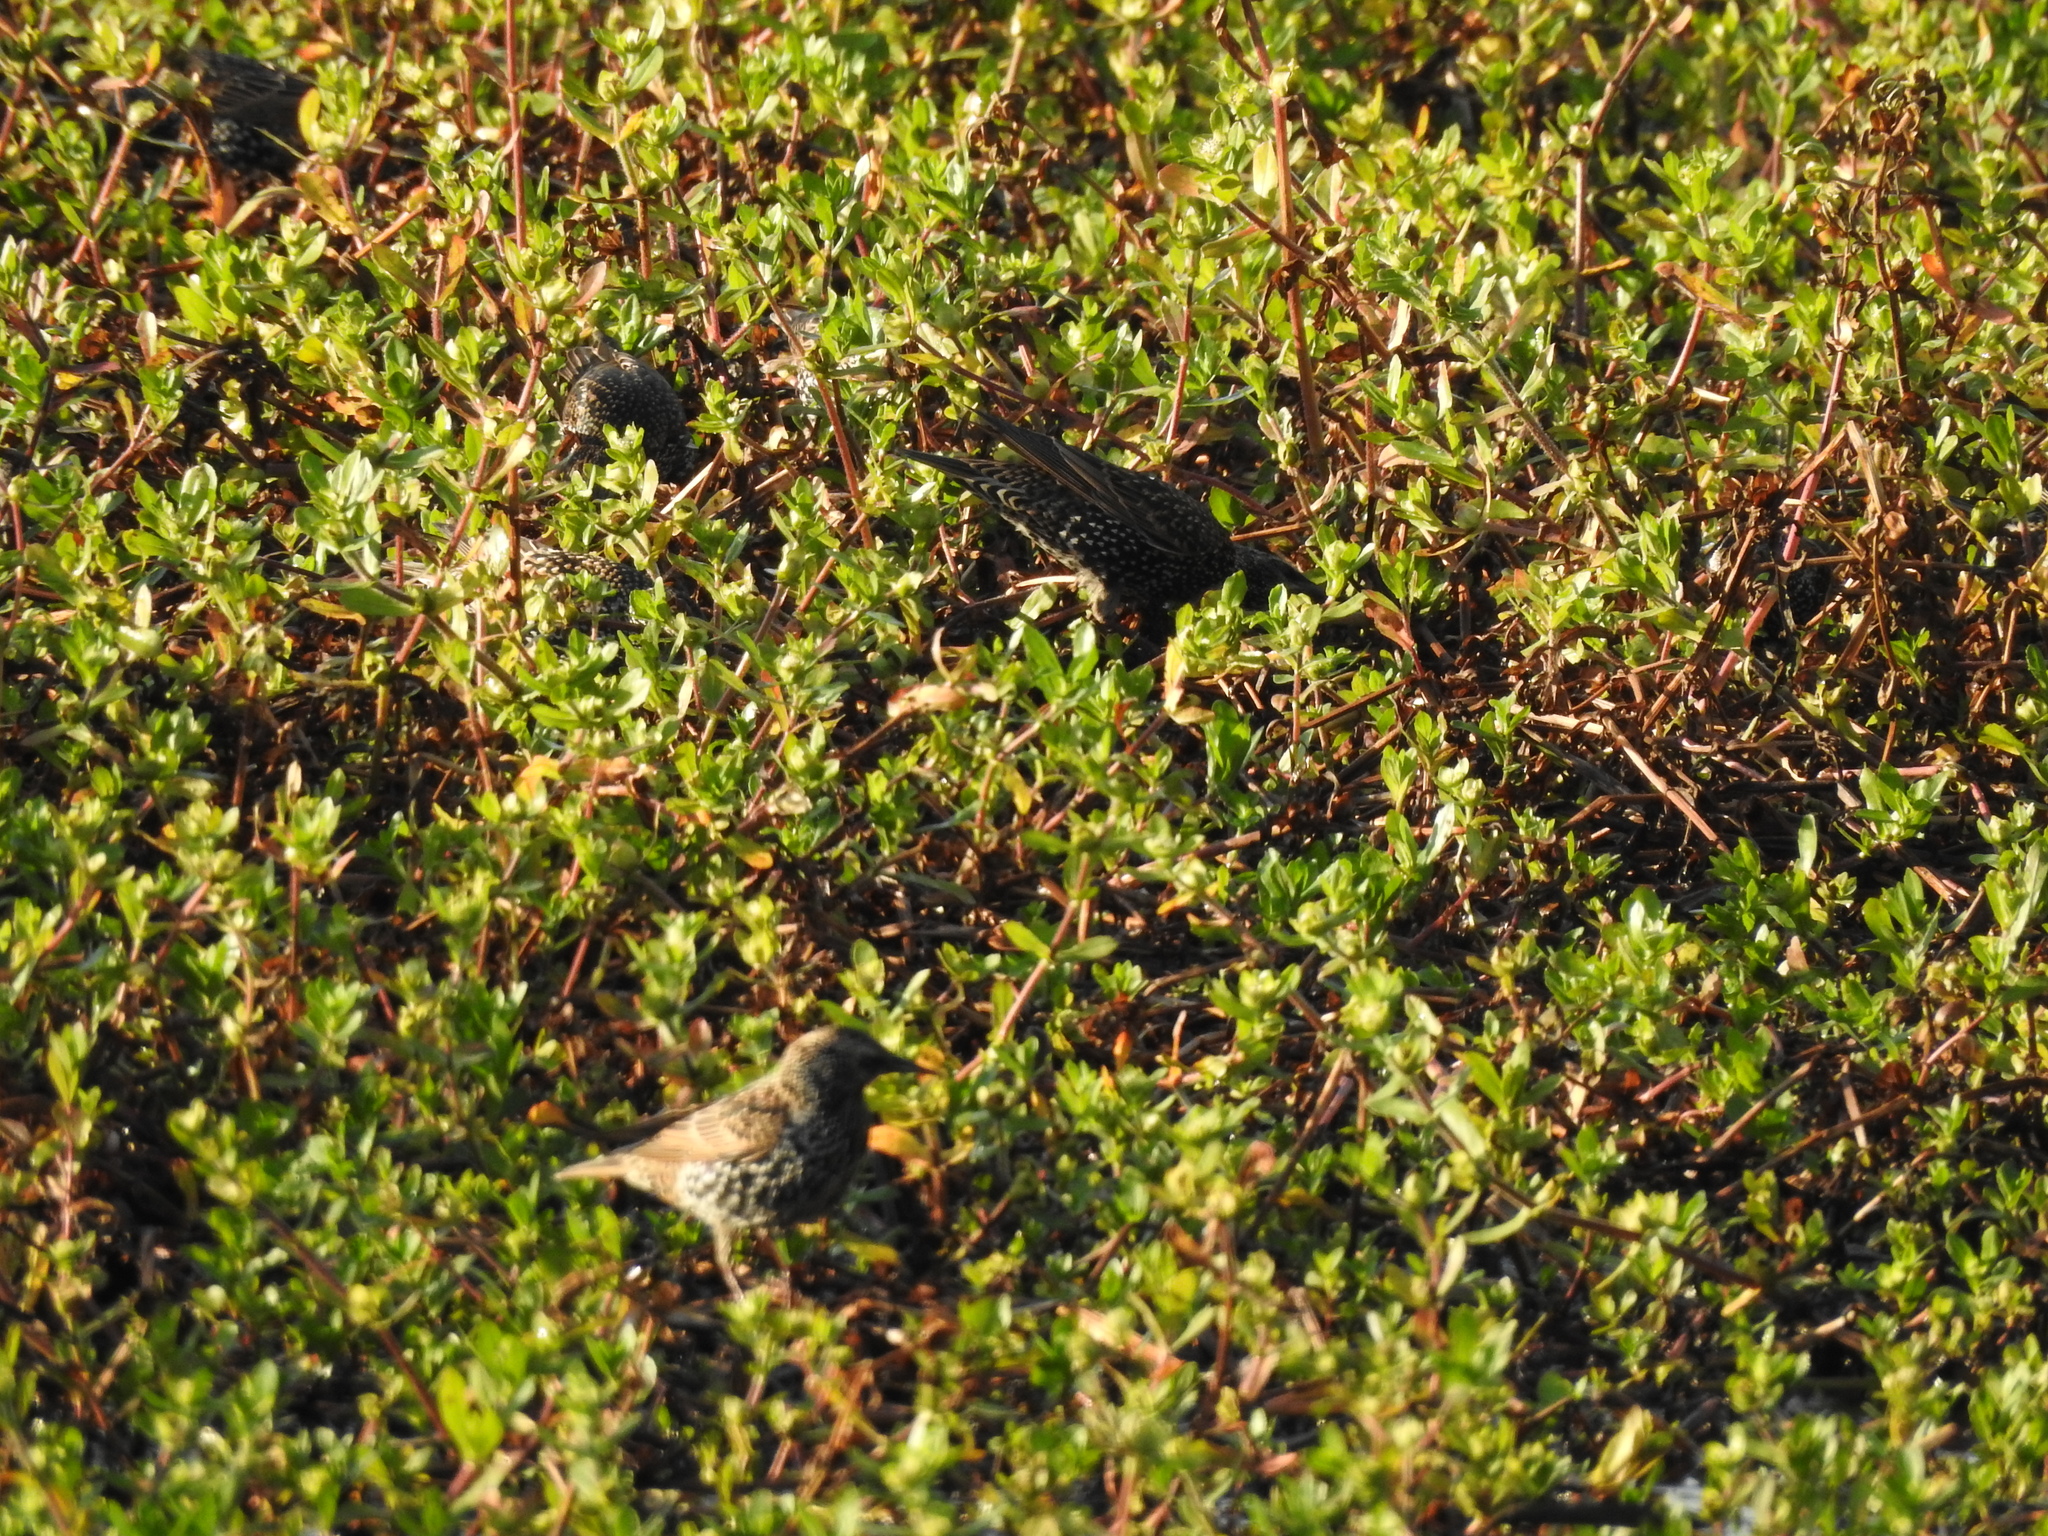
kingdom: Animalia
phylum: Chordata
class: Aves
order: Passeriformes
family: Sturnidae
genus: Sturnus
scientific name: Sturnus vulgaris
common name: Common starling
